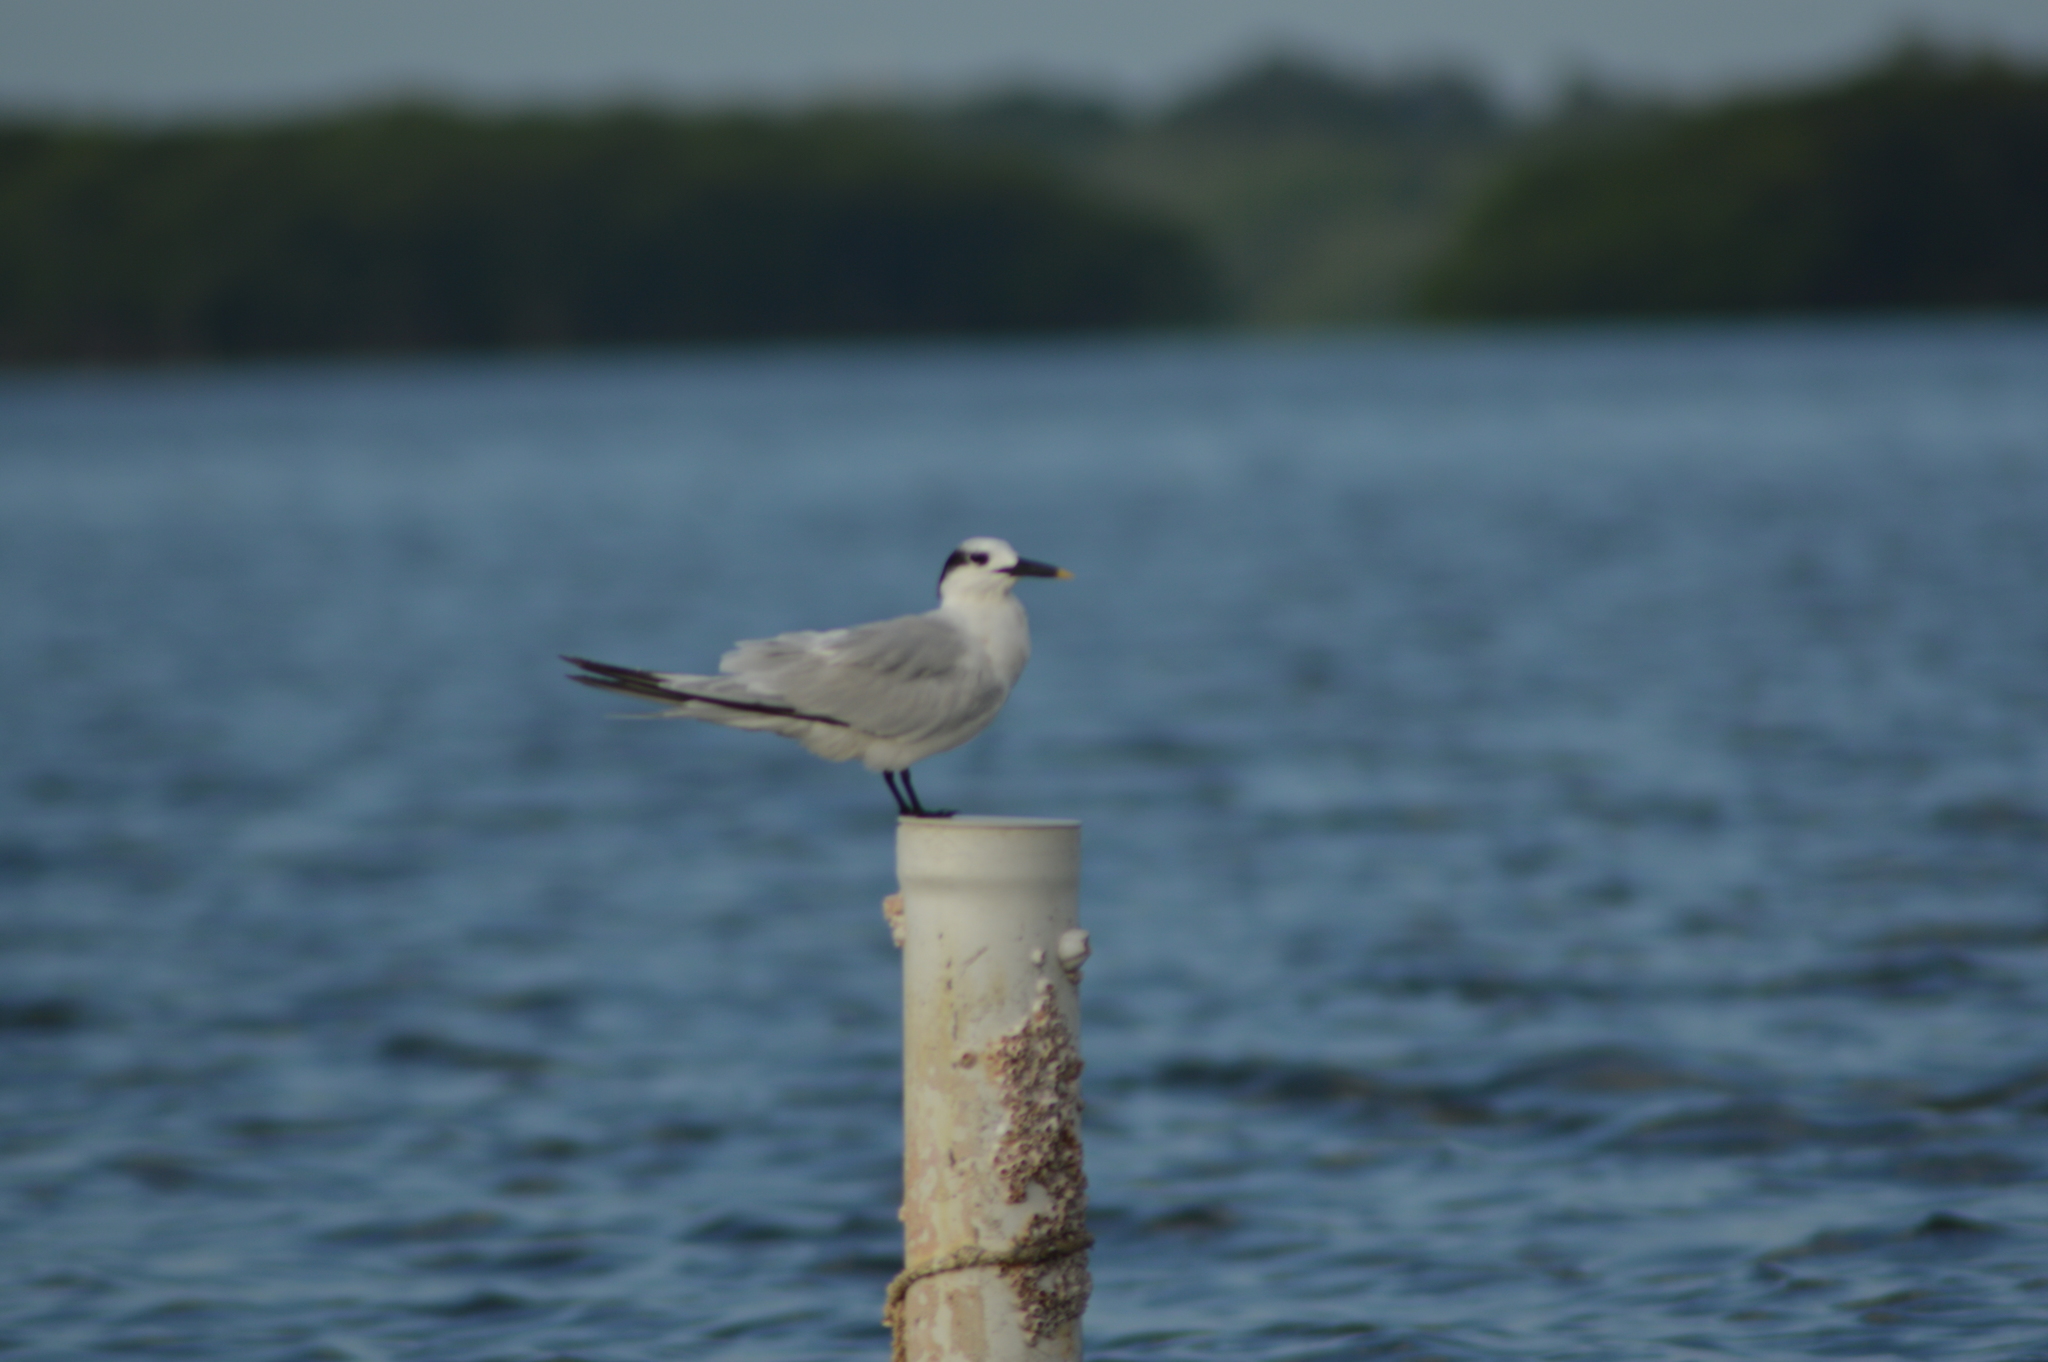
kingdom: Animalia
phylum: Chordata
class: Aves
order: Charadriiformes
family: Laridae
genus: Thalasseus
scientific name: Thalasseus sandvicensis
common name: Sandwich tern
